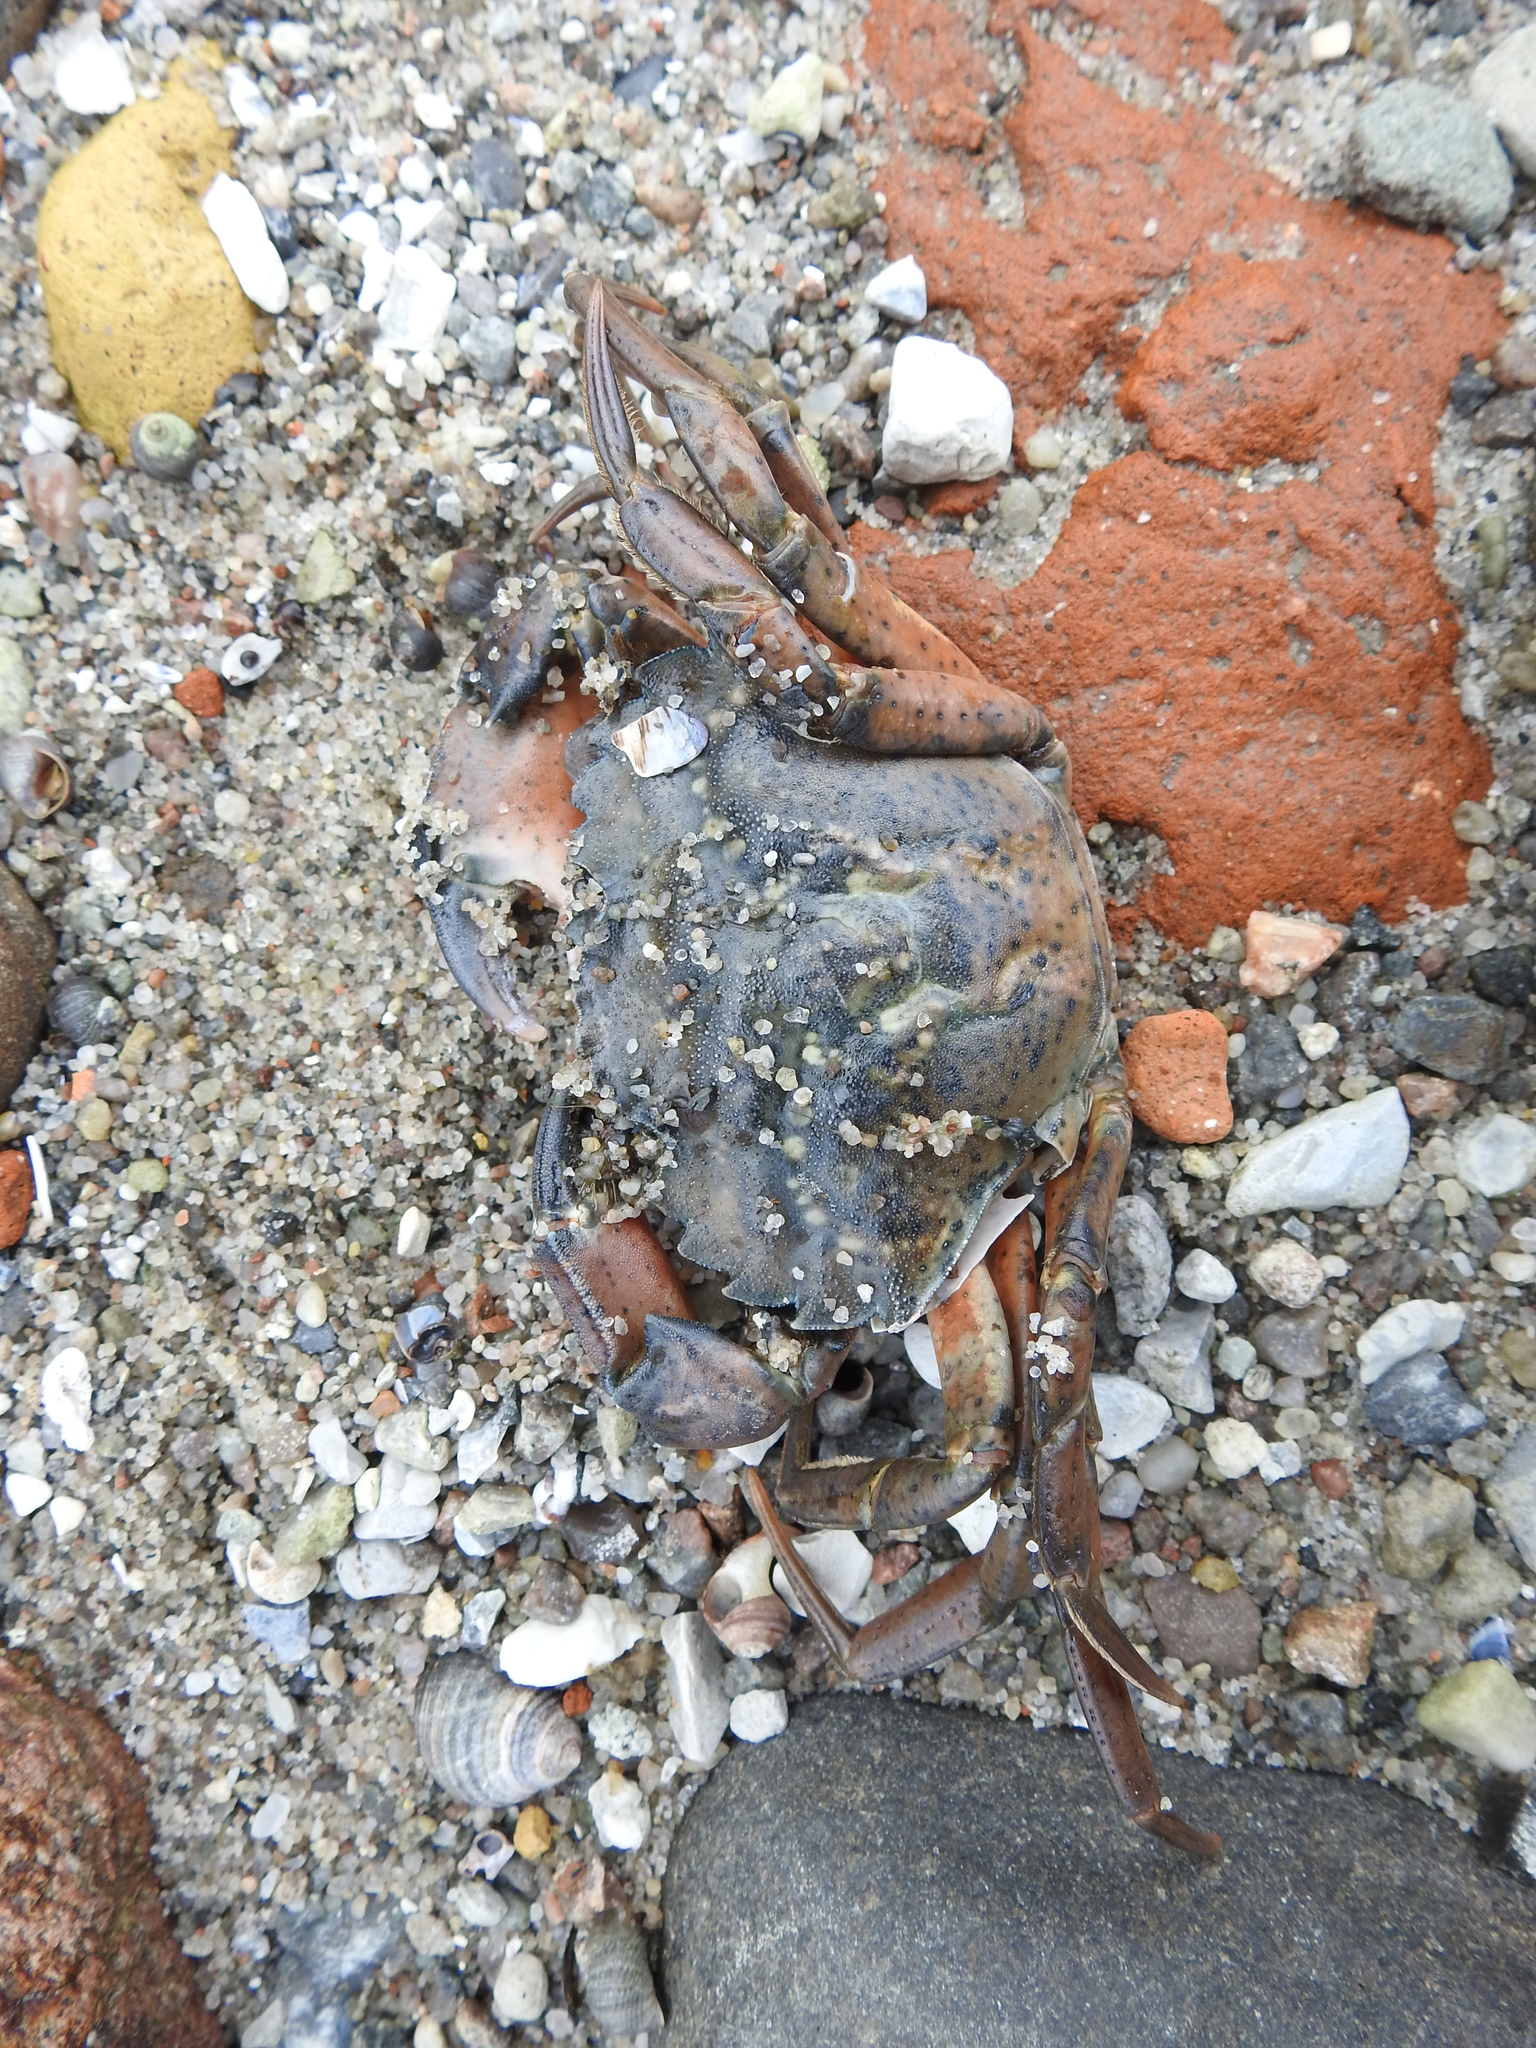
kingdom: Animalia
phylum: Arthropoda
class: Malacostraca
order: Decapoda
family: Carcinidae
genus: Carcinus
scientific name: Carcinus maenas
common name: European green crab
